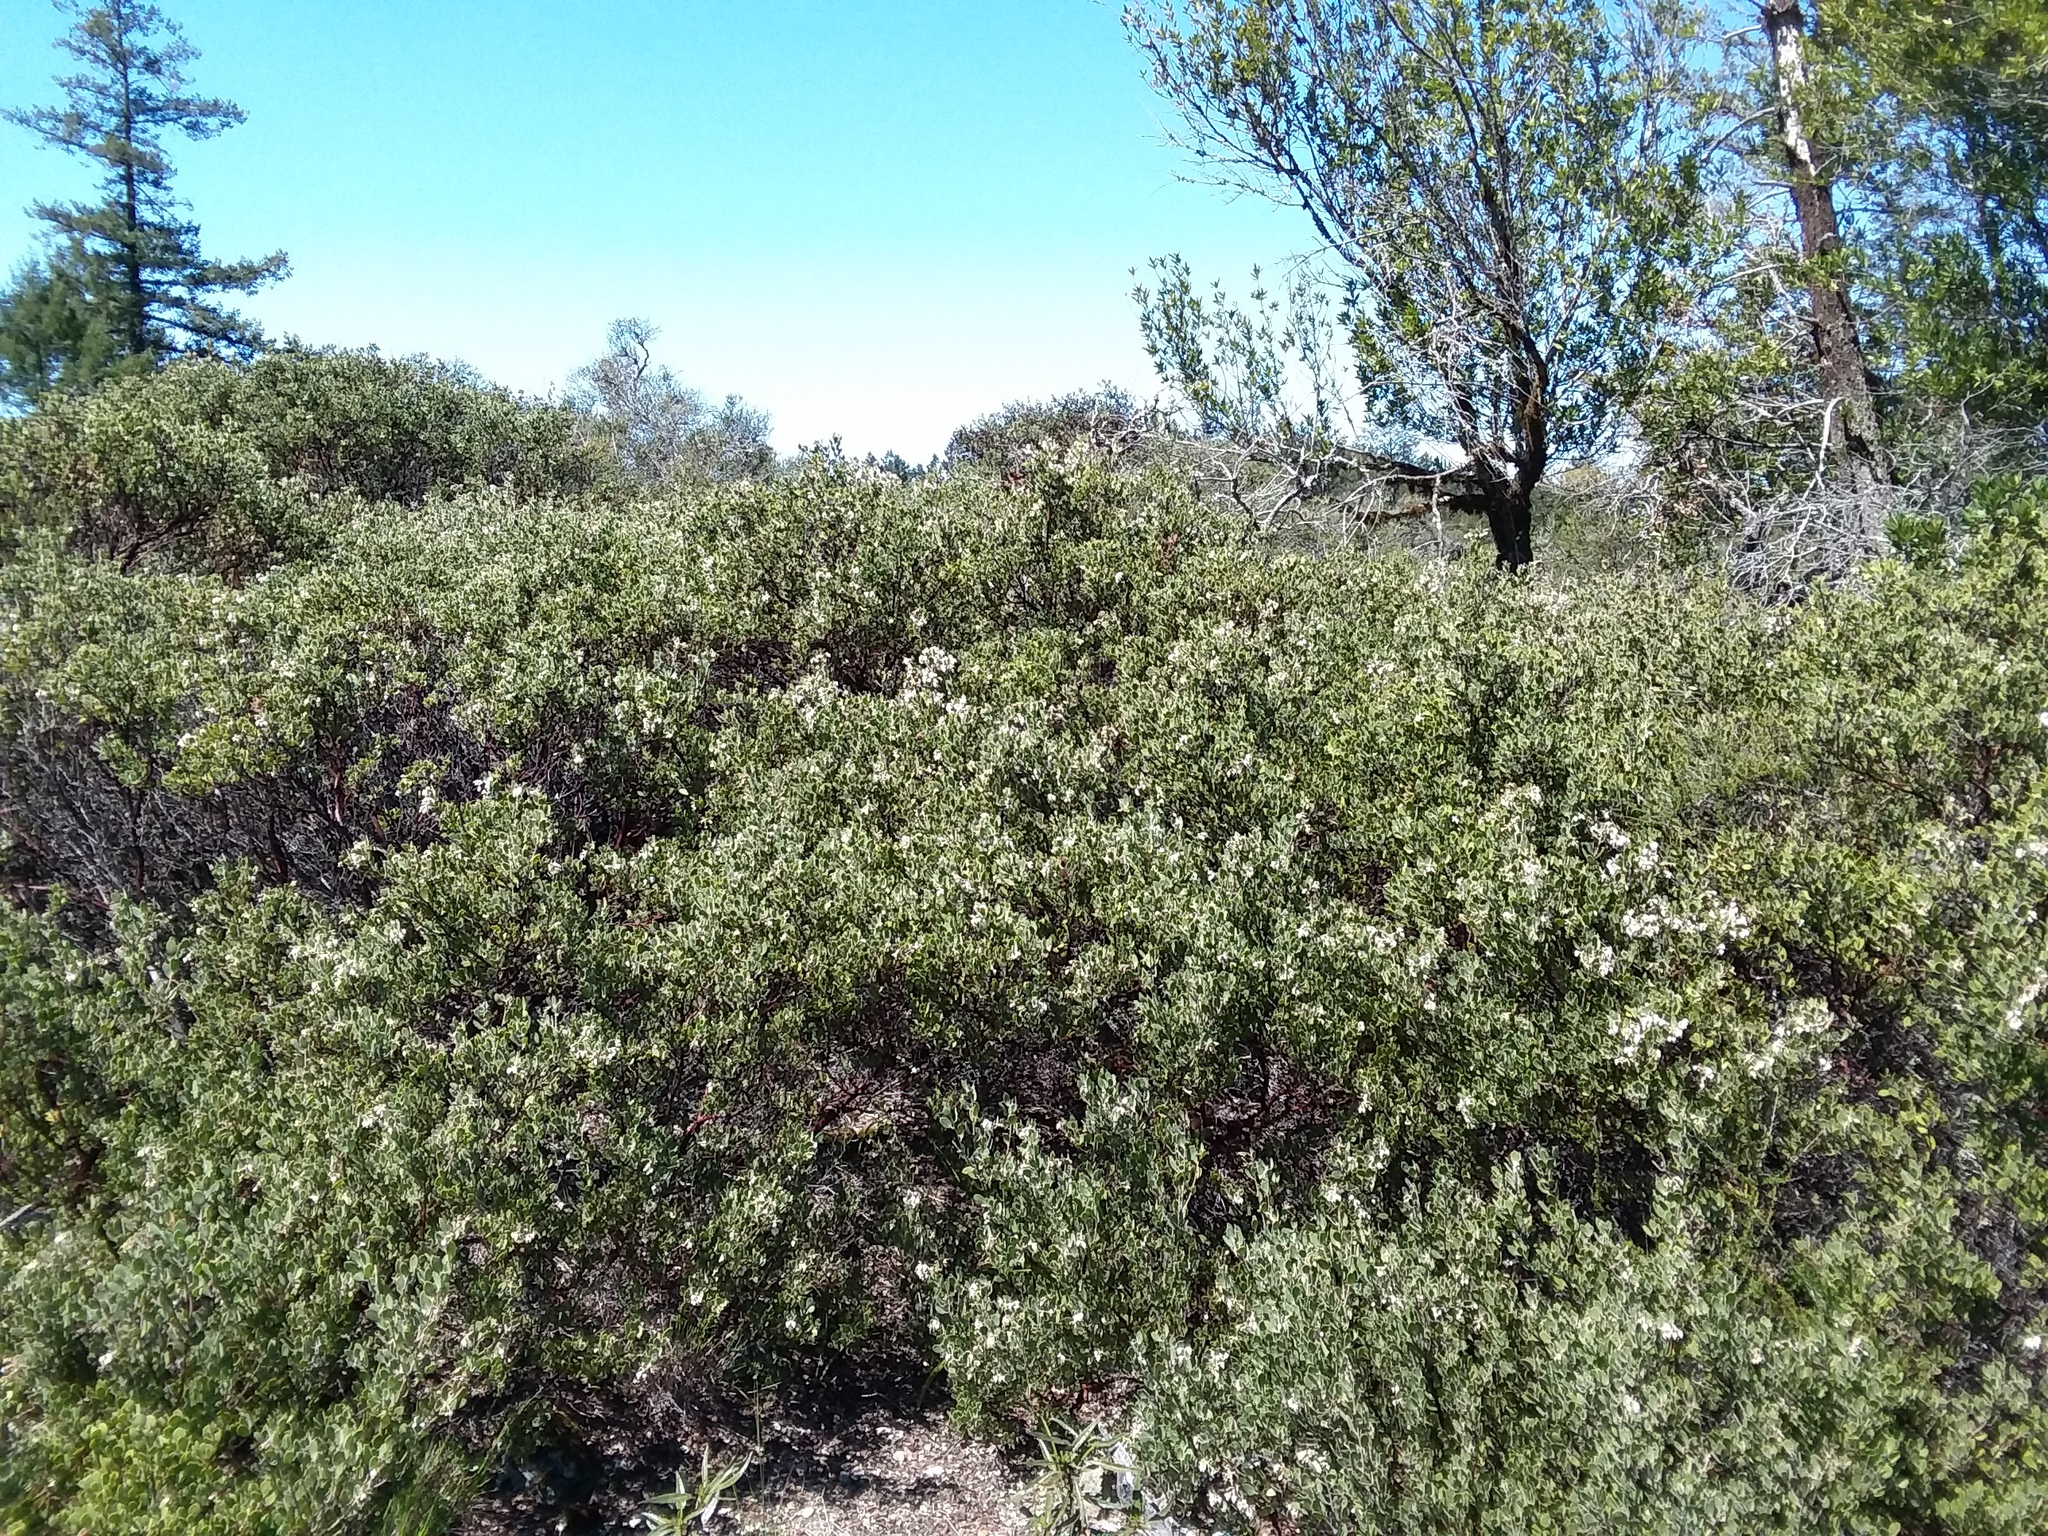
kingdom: Plantae
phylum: Tracheophyta
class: Magnoliopsida
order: Ericales
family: Ericaceae
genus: Arctostaphylos
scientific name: Arctostaphylos montana
